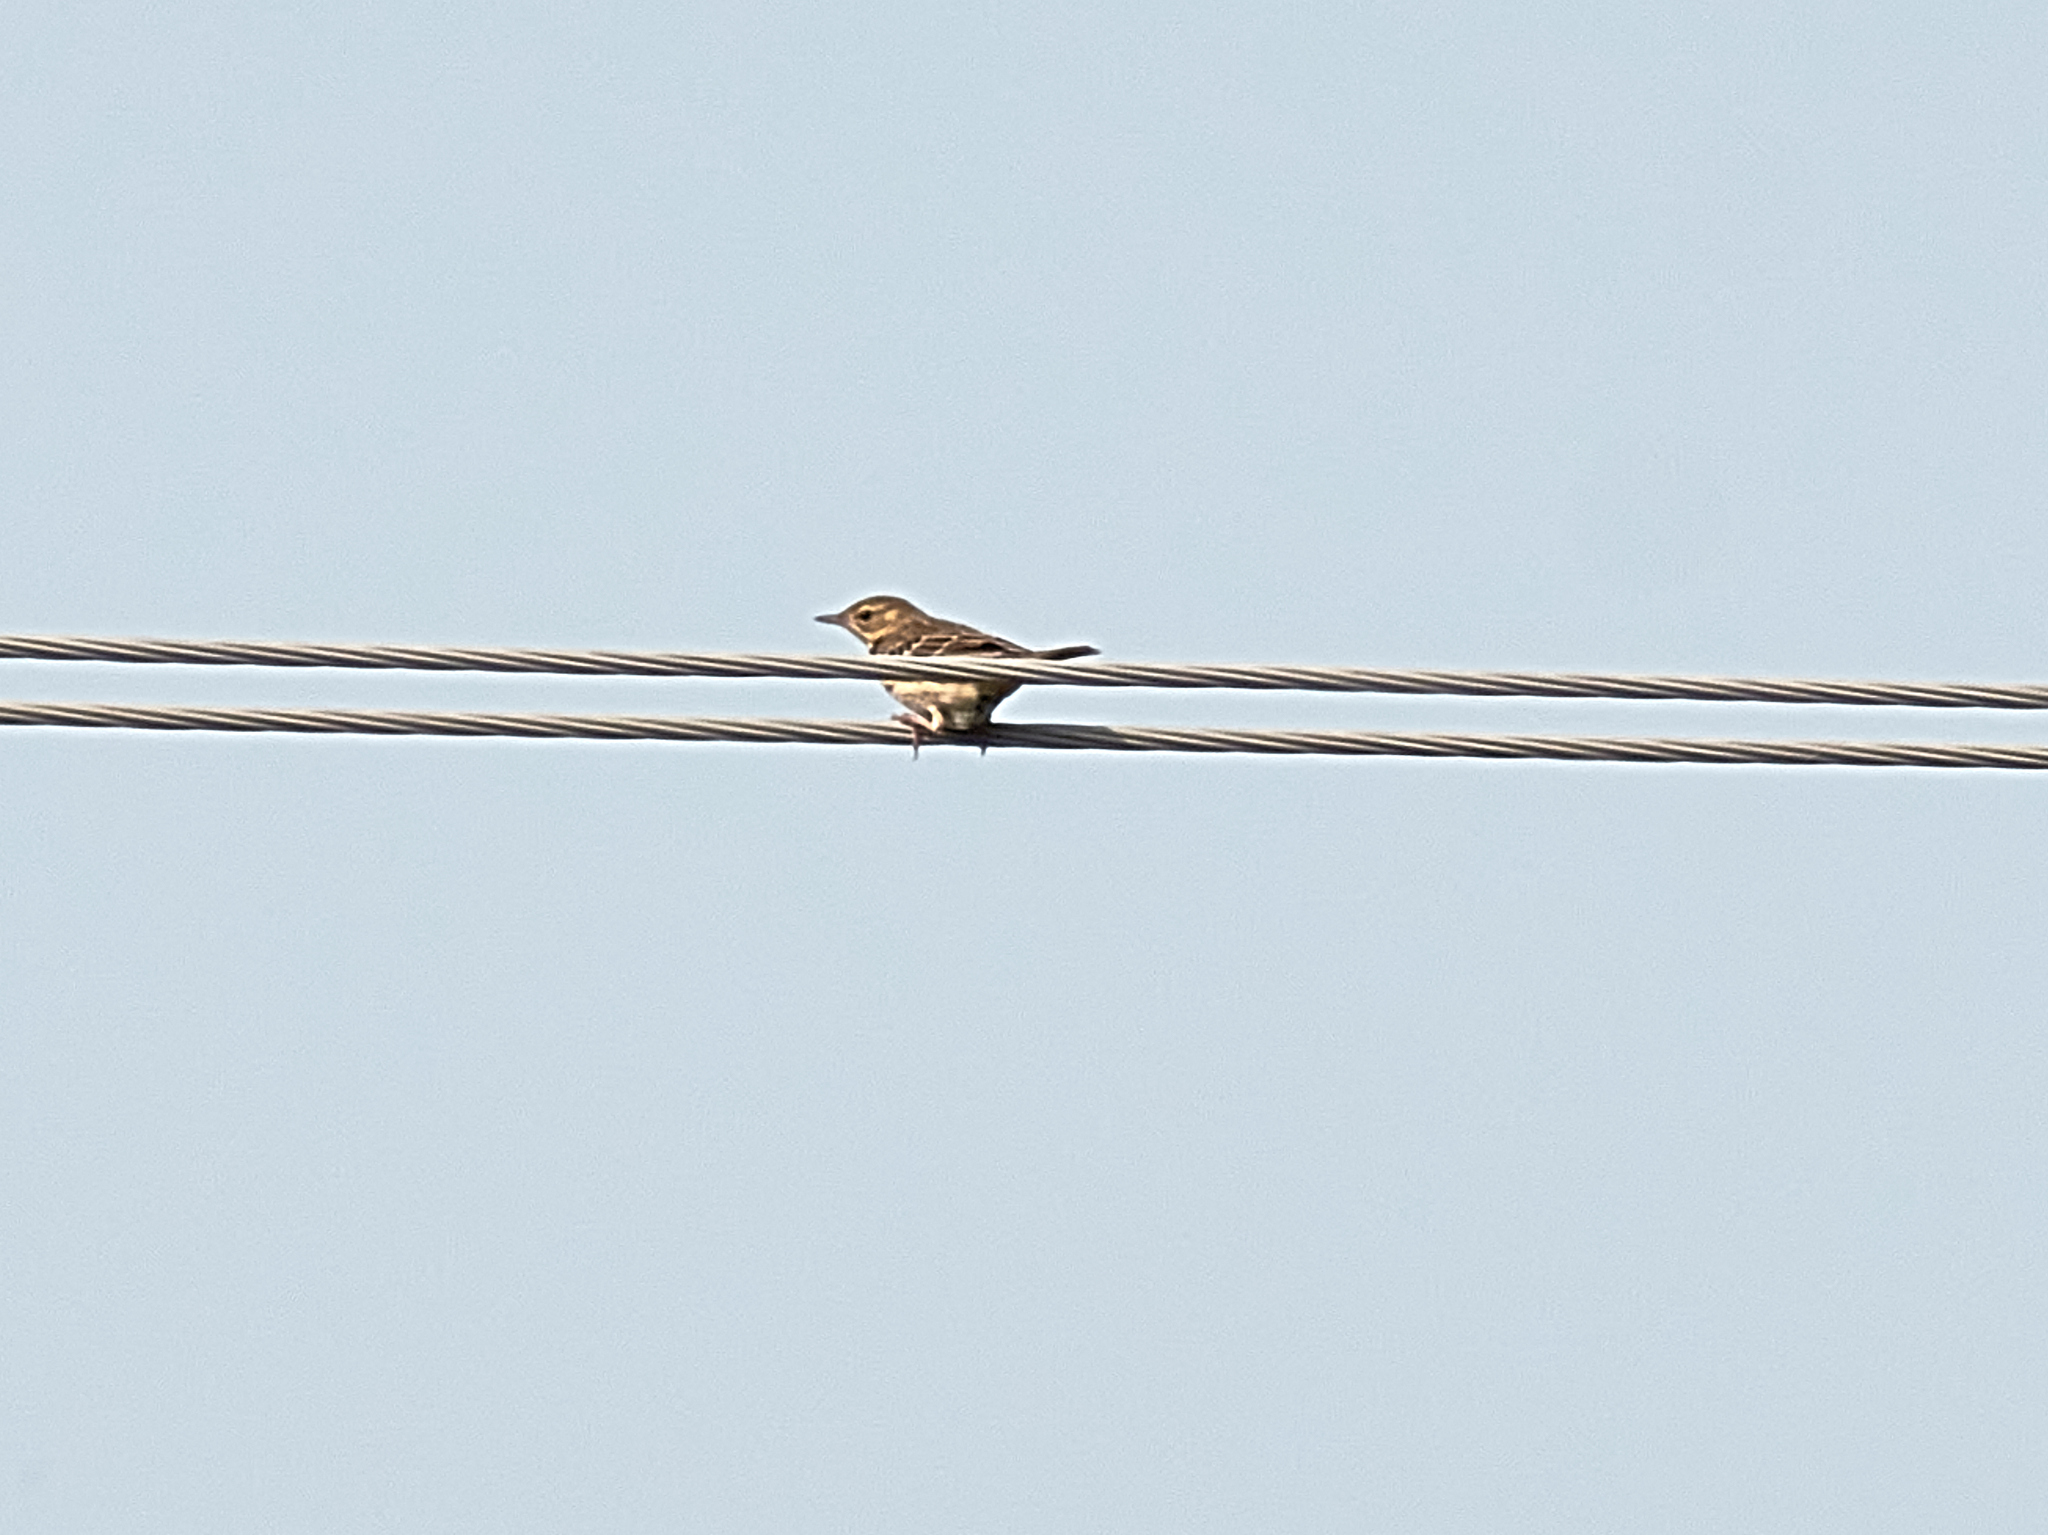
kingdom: Animalia
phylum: Chordata
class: Aves
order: Passeriformes
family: Motacillidae
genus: Anthus
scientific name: Anthus trivialis
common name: Tree pipit
